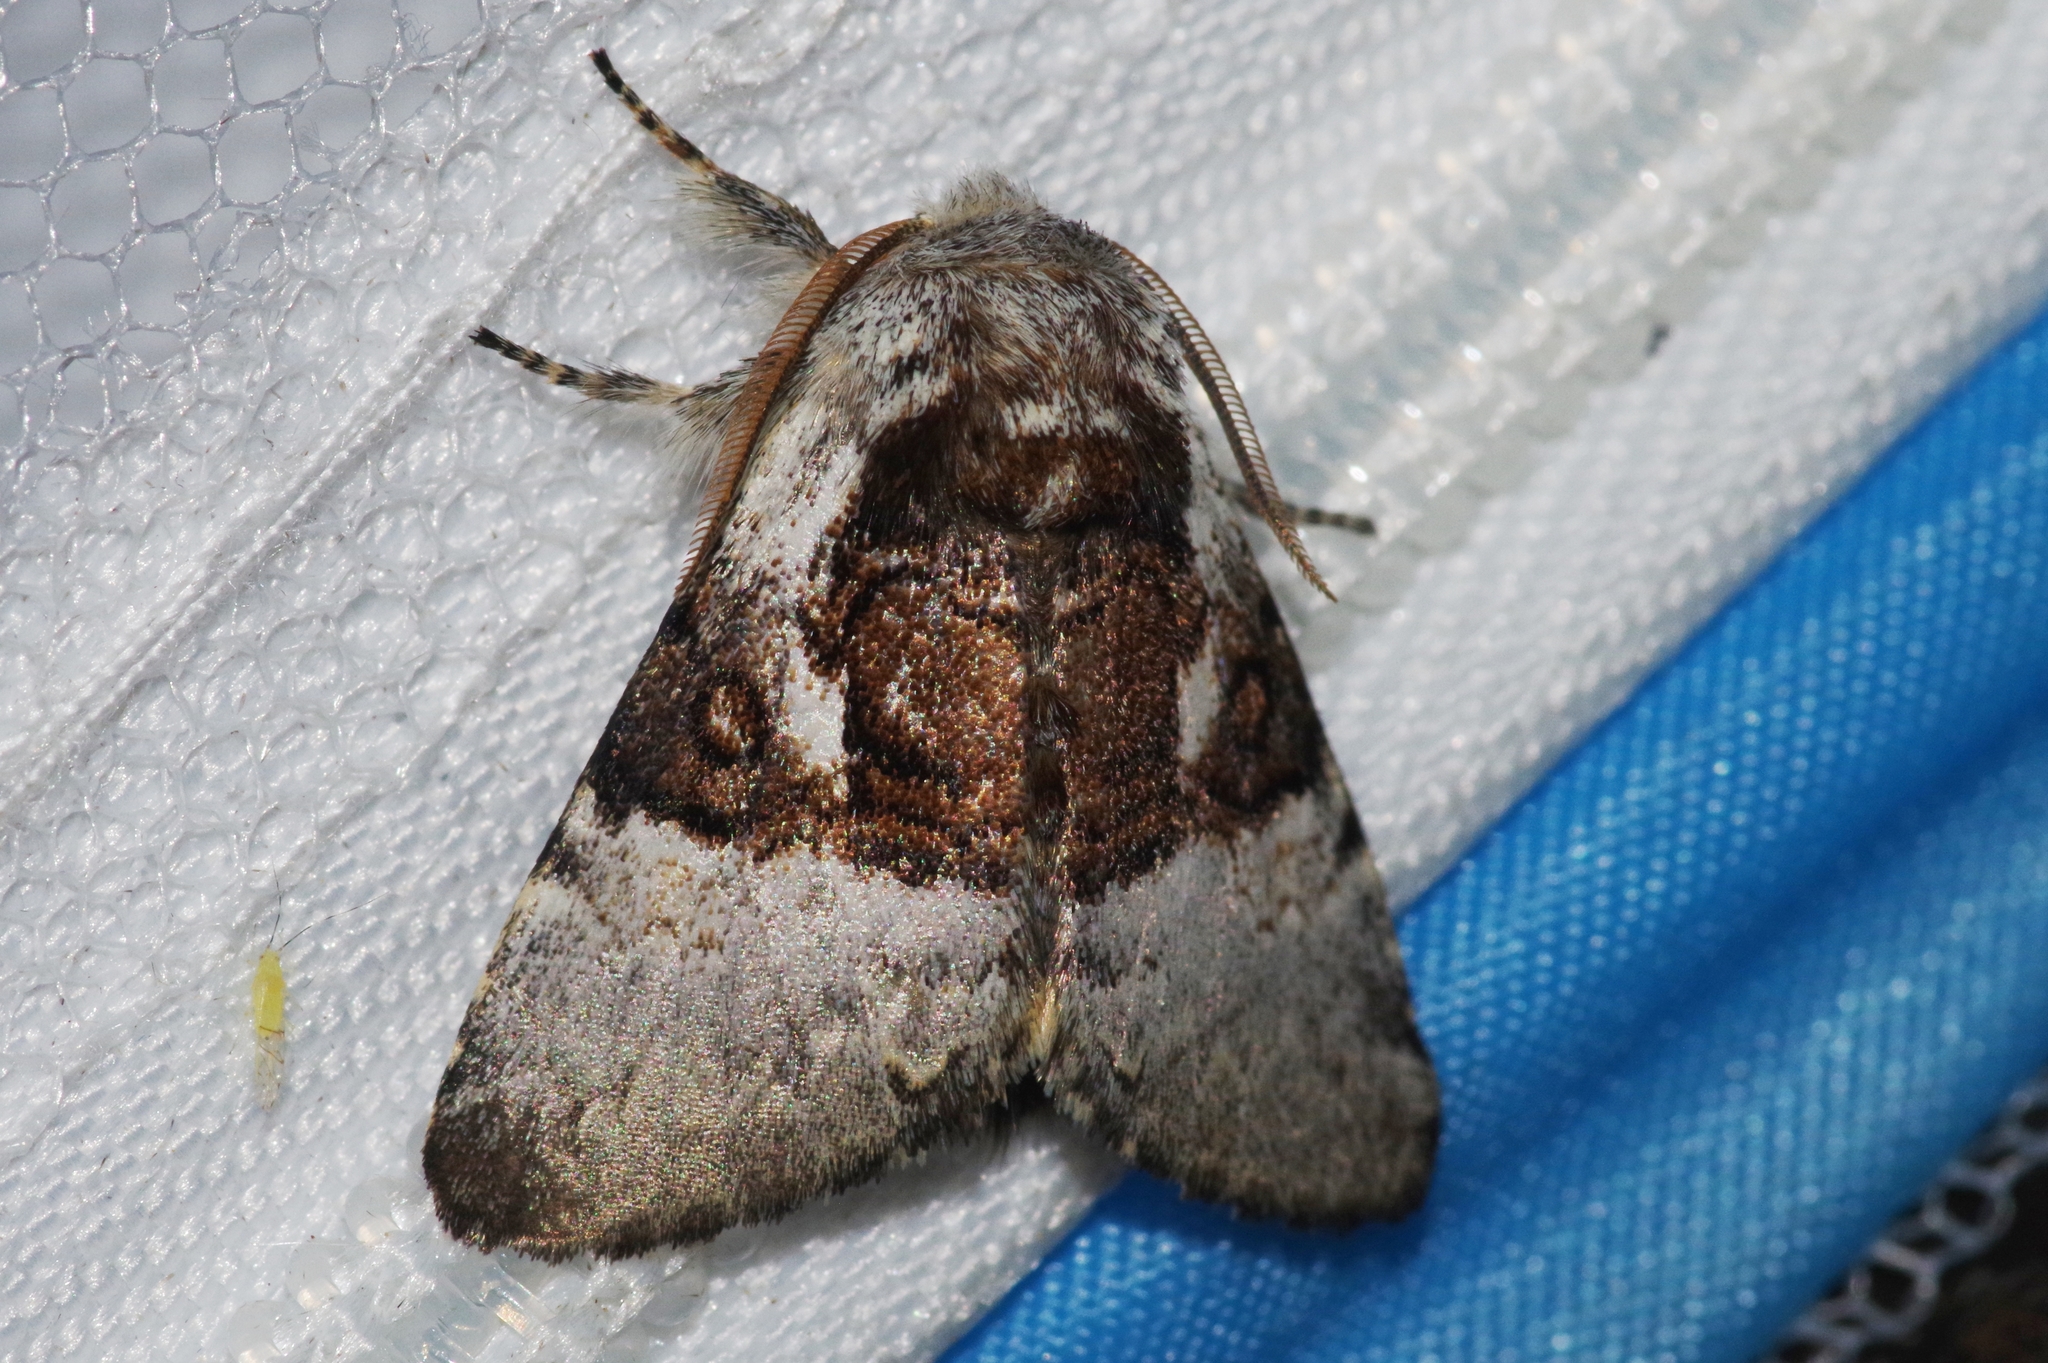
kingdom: Animalia
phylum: Arthropoda
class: Insecta
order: Lepidoptera
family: Noctuidae
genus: Colocasia
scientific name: Colocasia mus
